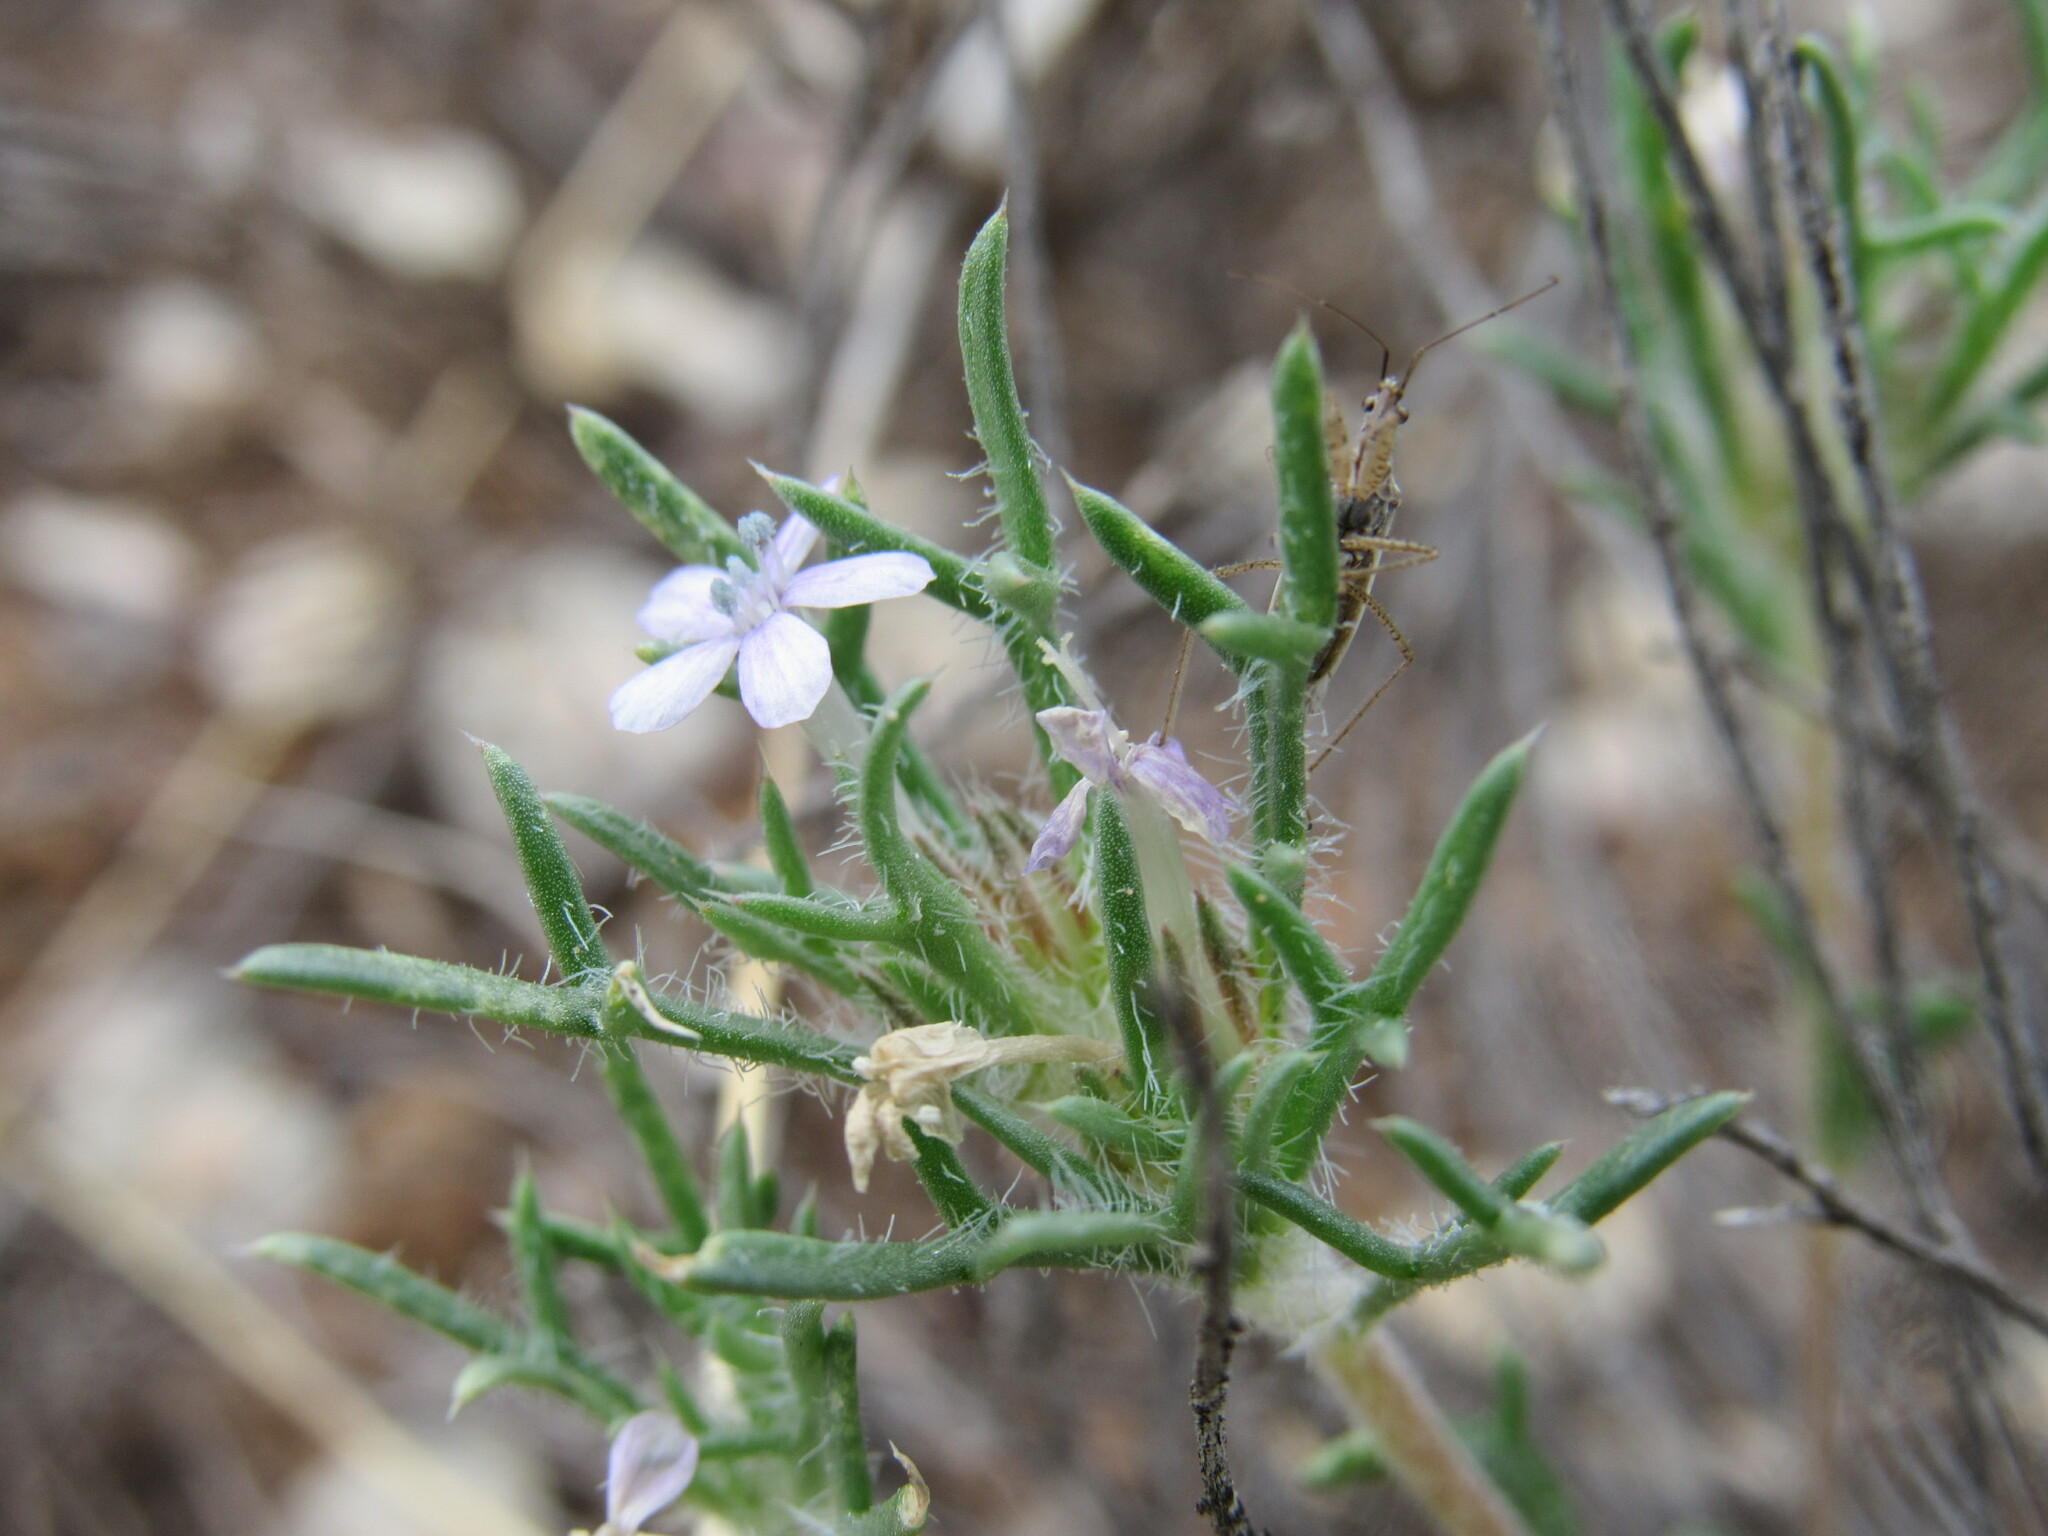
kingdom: Plantae
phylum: Tracheophyta
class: Magnoliopsida
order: Ericales
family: Polemoniaceae
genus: Ipomopsis
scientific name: Ipomopsis pumila
